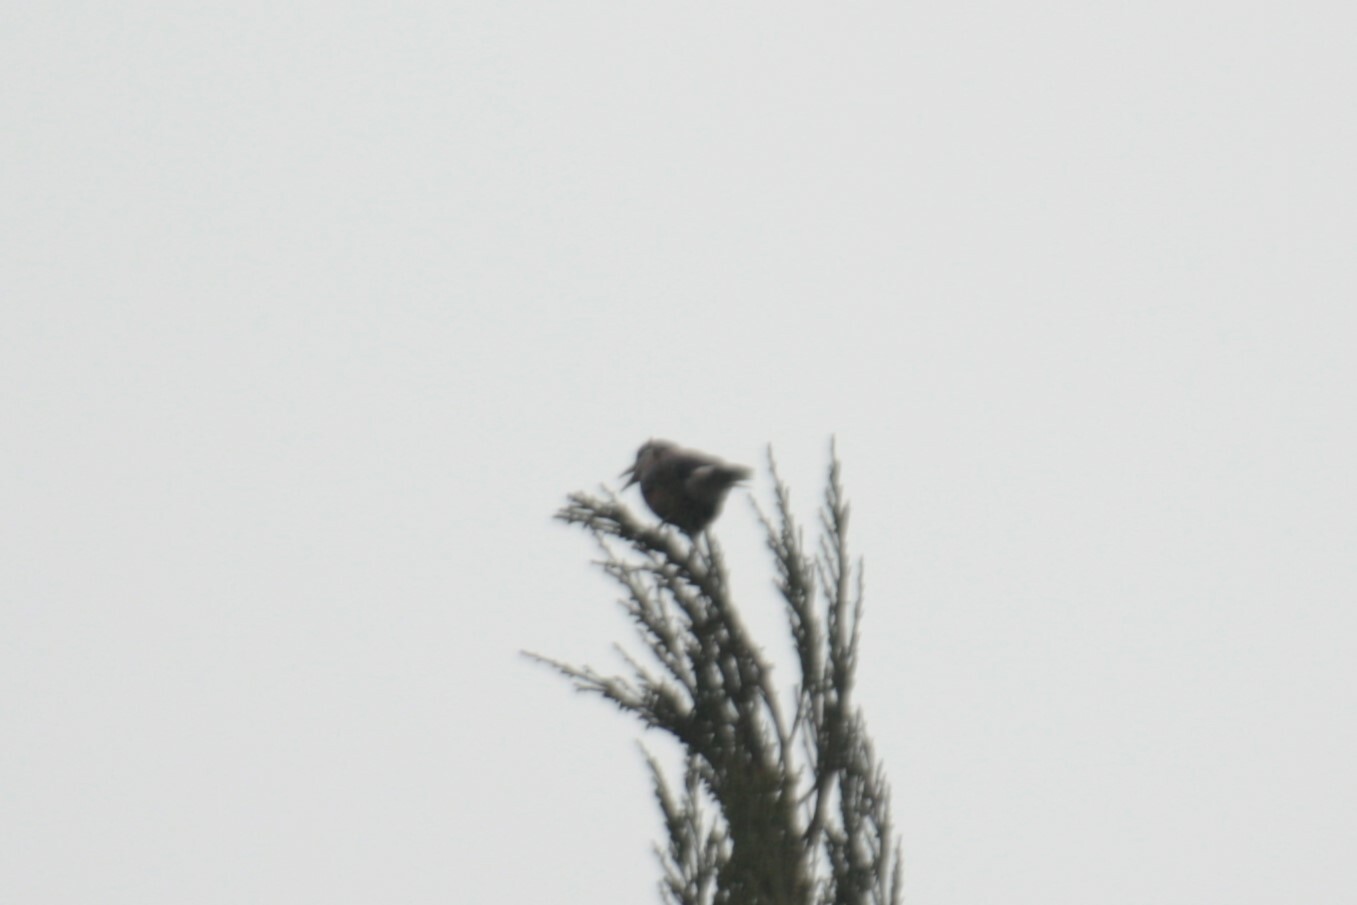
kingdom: Animalia
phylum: Chordata
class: Aves
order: Passeriformes
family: Corvidae
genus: Nucifraga
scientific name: Nucifraga caryocatactes
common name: Spotted nutcracker
